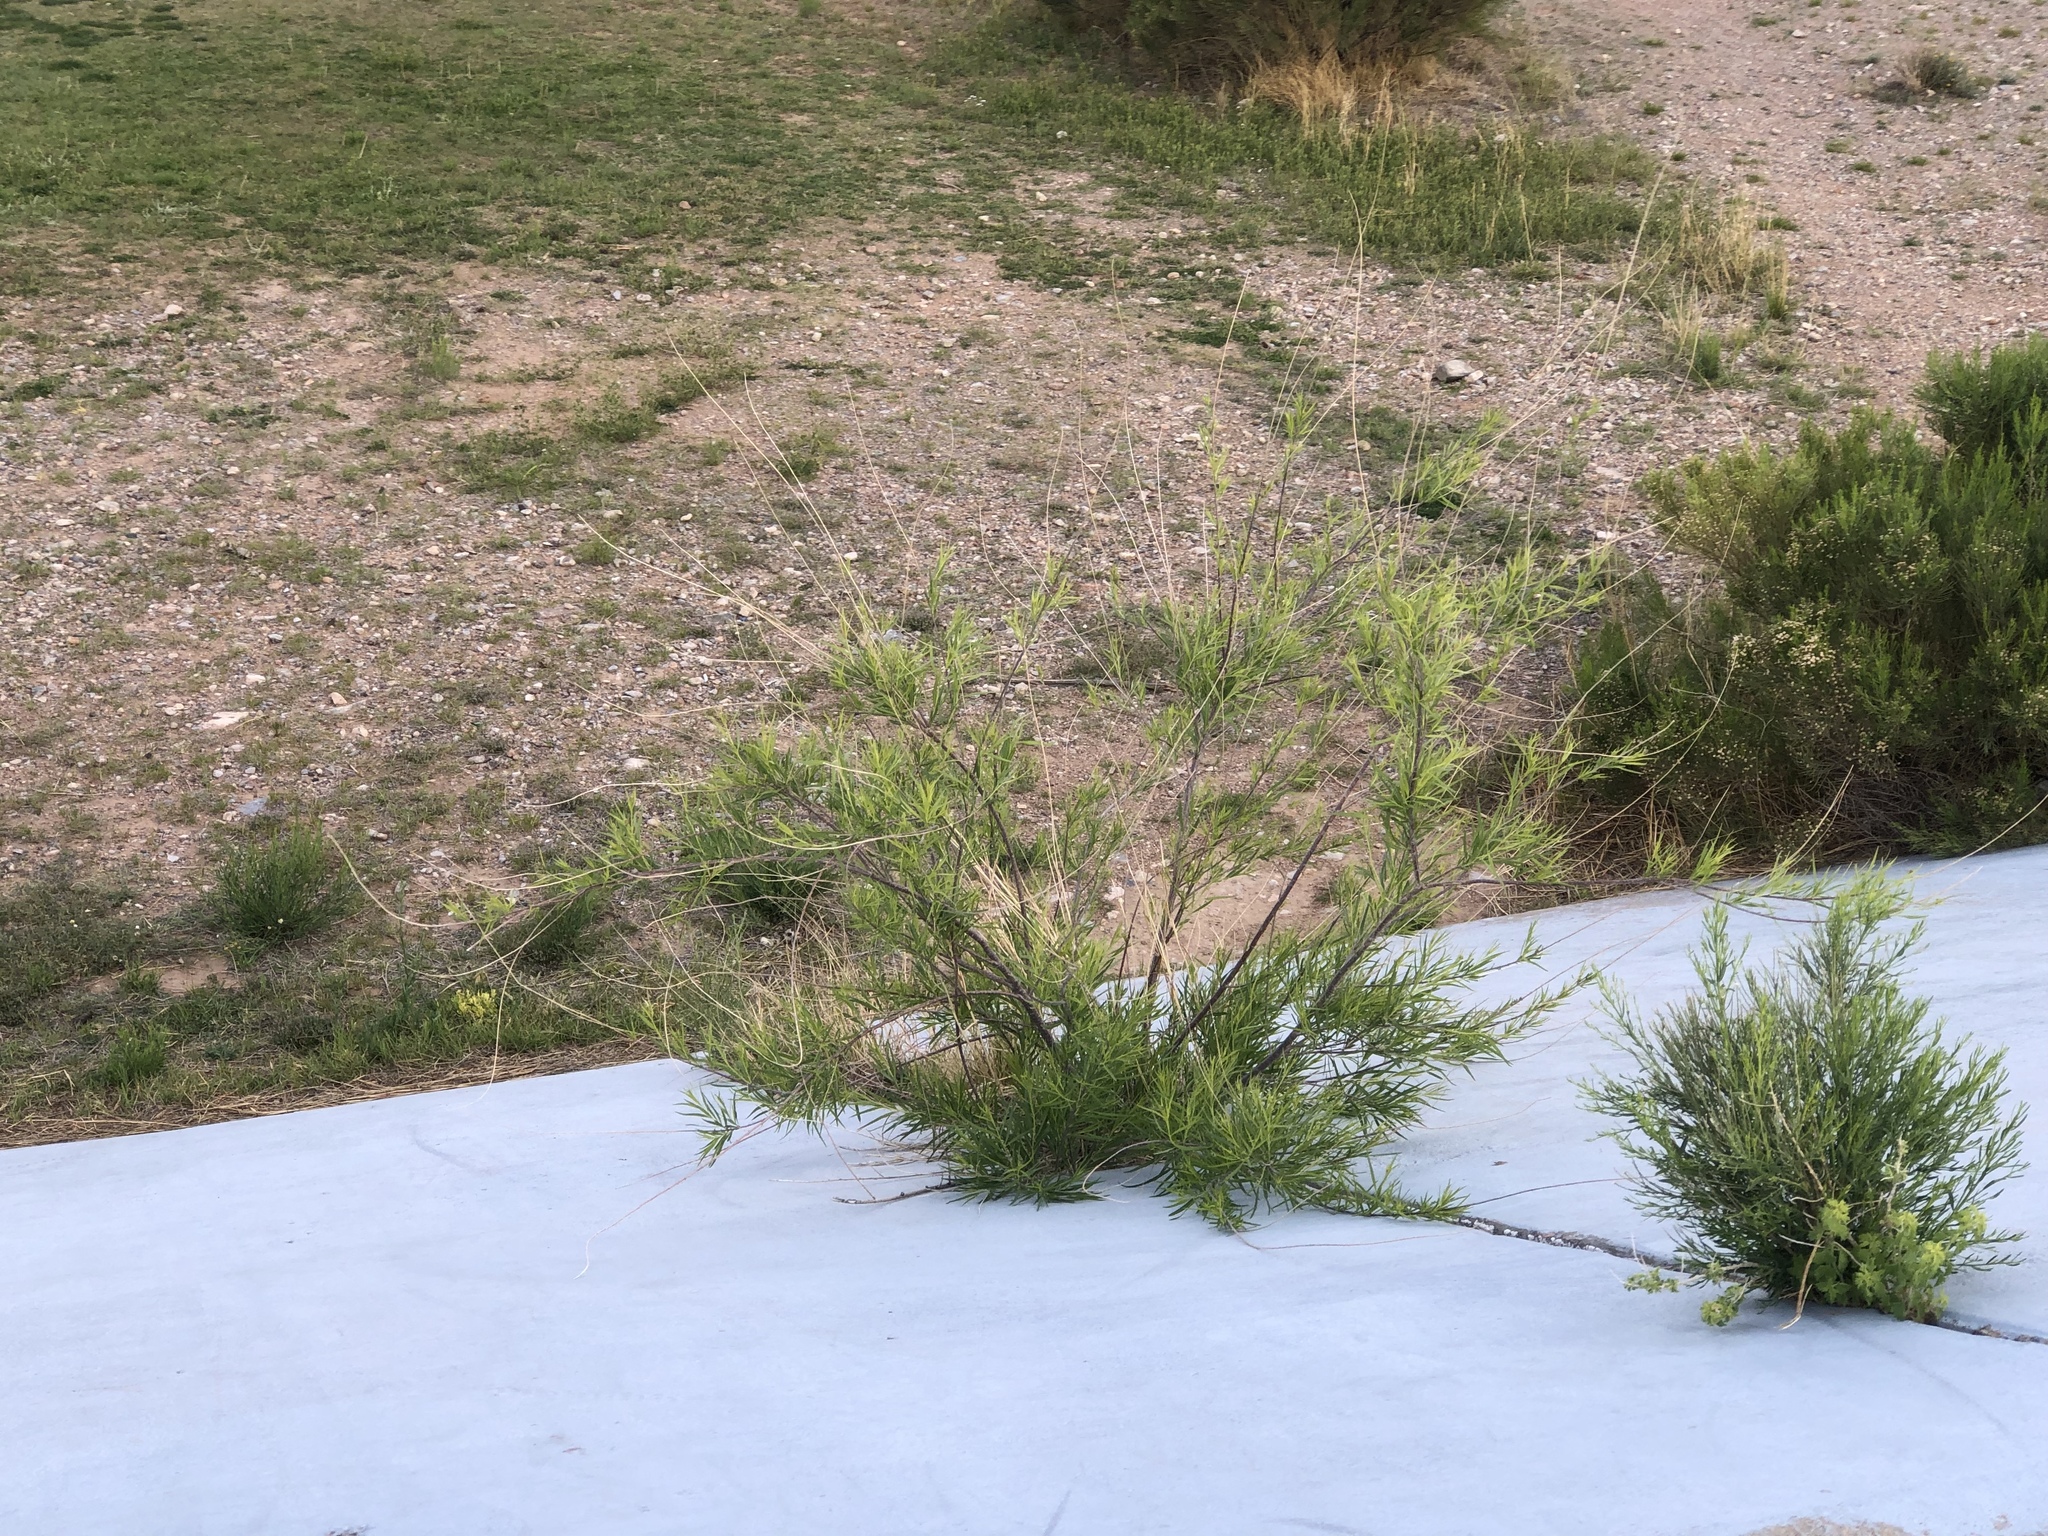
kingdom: Plantae
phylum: Tracheophyta
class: Magnoliopsida
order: Lamiales
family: Bignoniaceae
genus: Chilopsis
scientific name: Chilopsis linearis
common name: Desert-willow
